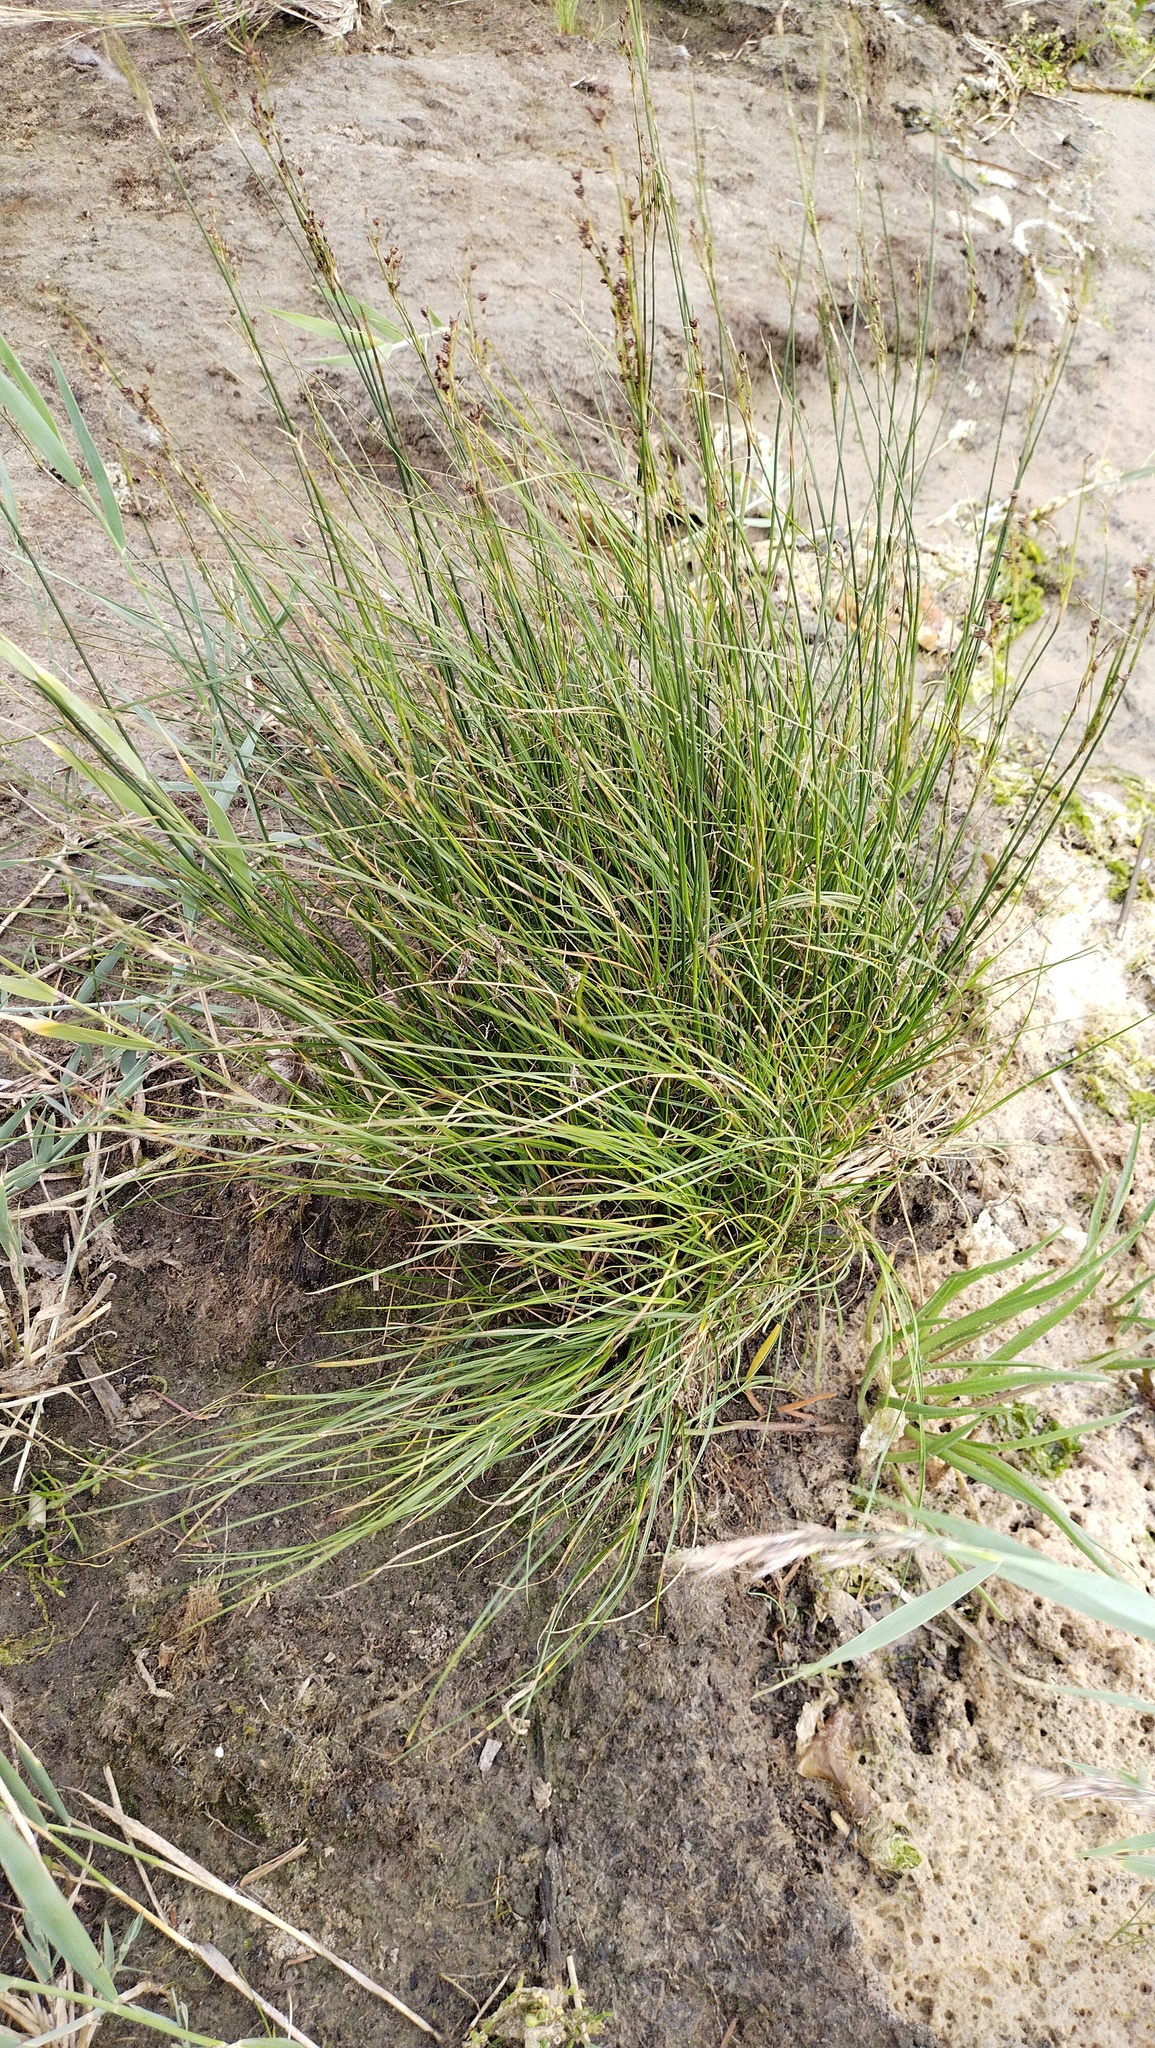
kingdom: Plantae
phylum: Tracheophyta
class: Liliopsida
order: Poales
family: Juncaceae
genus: Juncus
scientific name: Juncus gerardi
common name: Saltmarsh rush
